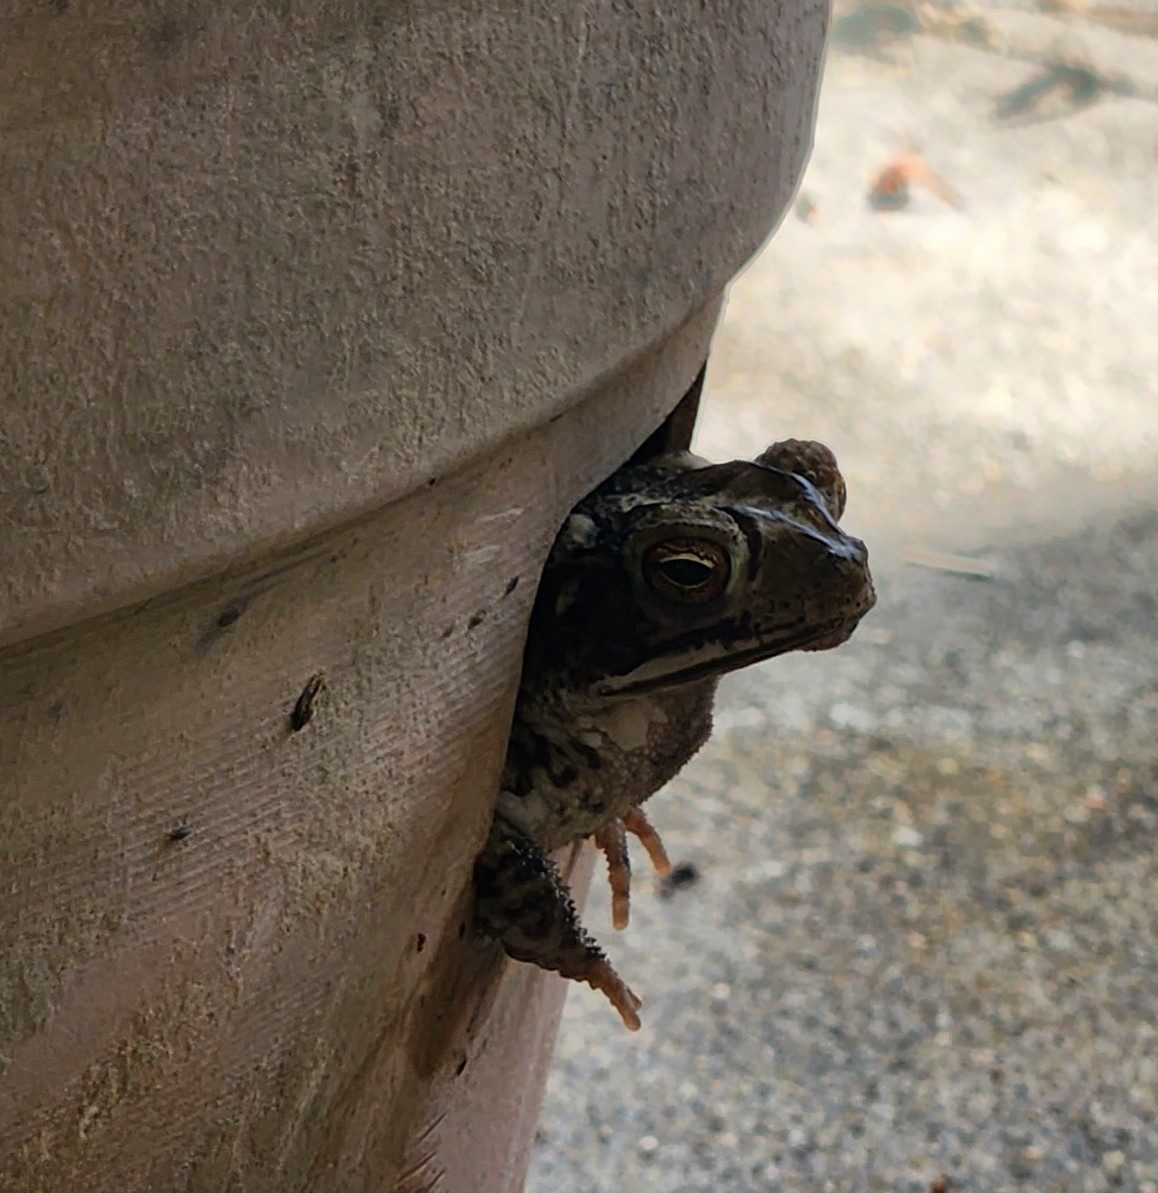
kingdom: Animalia
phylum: Chordata
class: Amphibia
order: Anura
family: Bufonidae
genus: Incilius
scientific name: Incilius nebulifer
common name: Gulf coast toad
